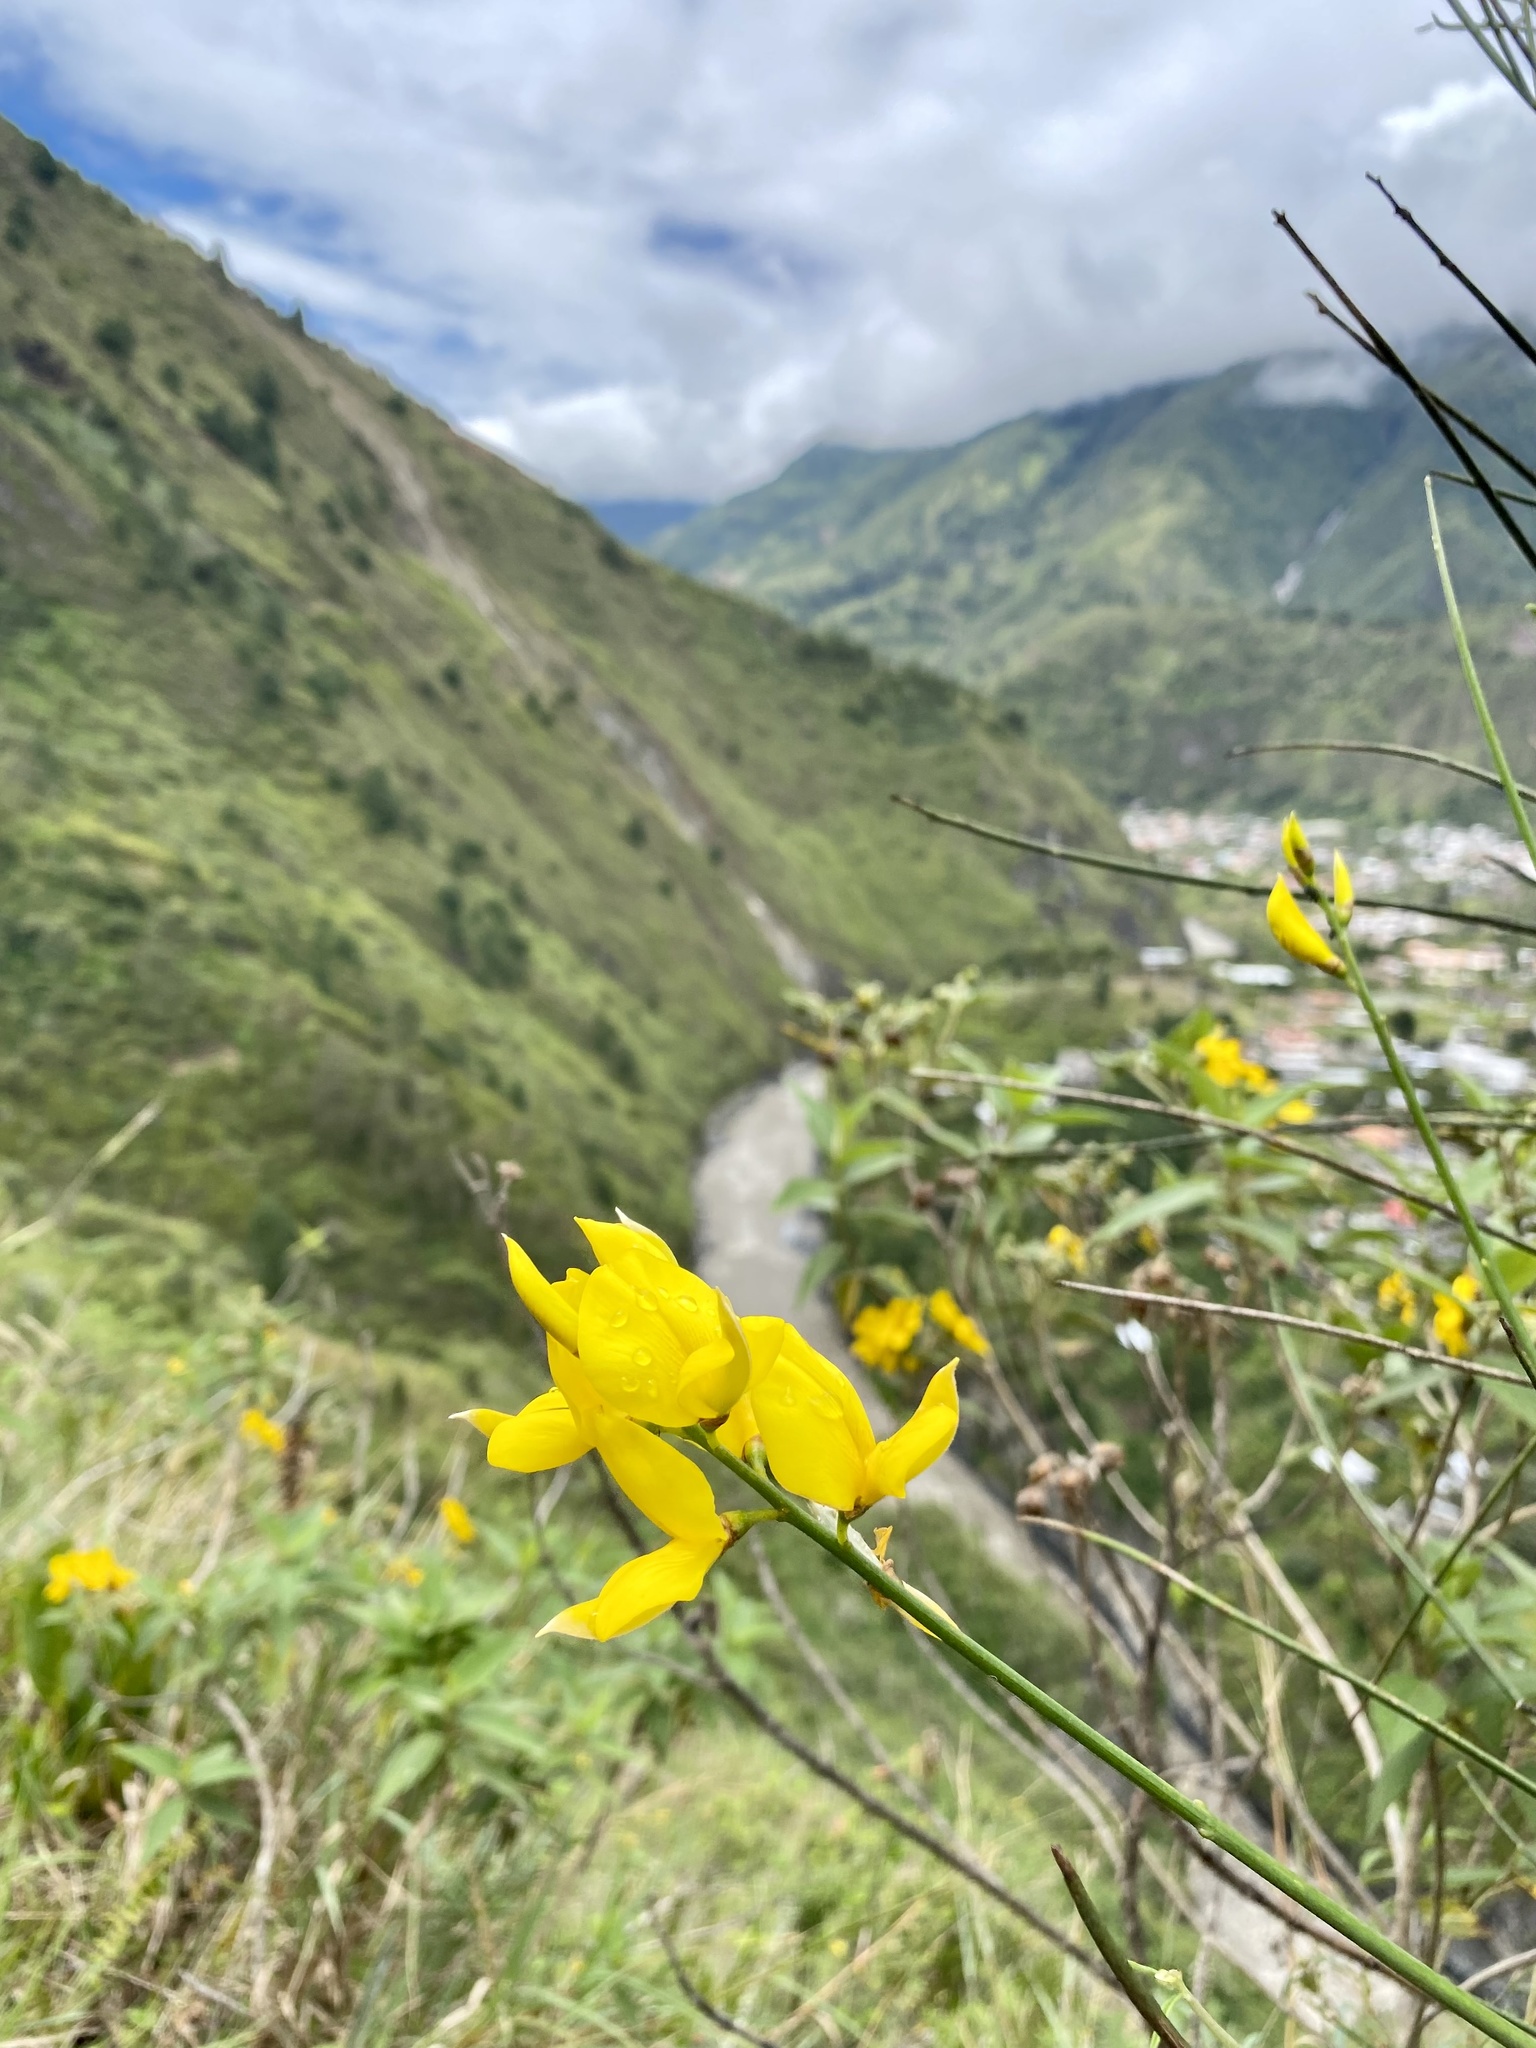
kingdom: Plantae
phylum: Tracheophyta
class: Magnoliopsida
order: Fabales
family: Fabaceae
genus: Spartium
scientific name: Spartium junceum
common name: Spanish broom
